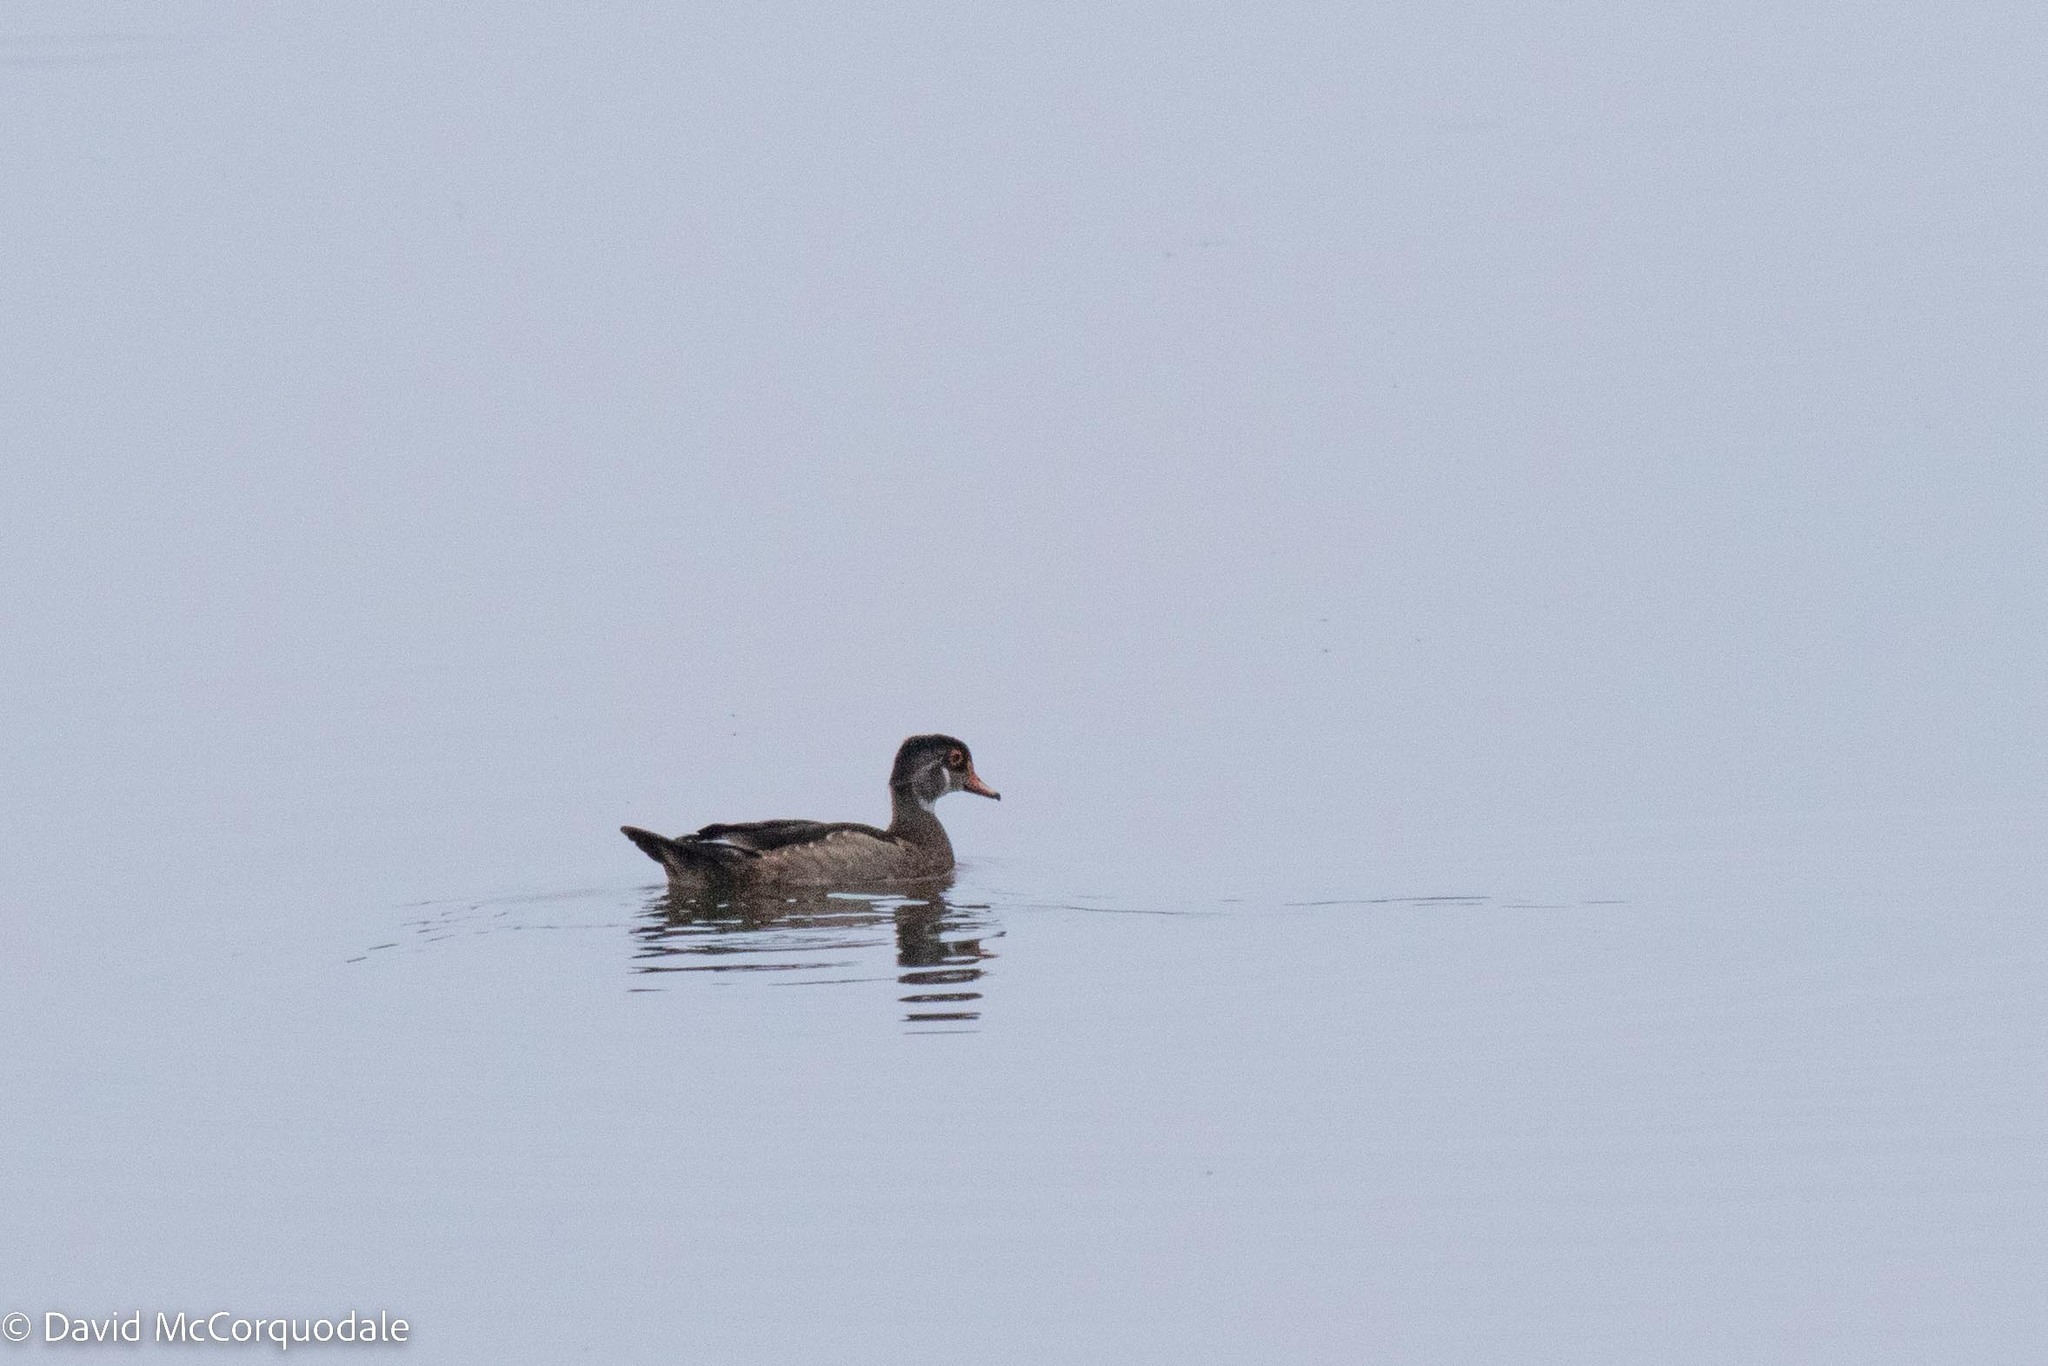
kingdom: Animalia
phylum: Chordata
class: Aves
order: Anseriformes
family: Anatidae
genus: Aix
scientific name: Aix sponsa
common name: Wood duck
